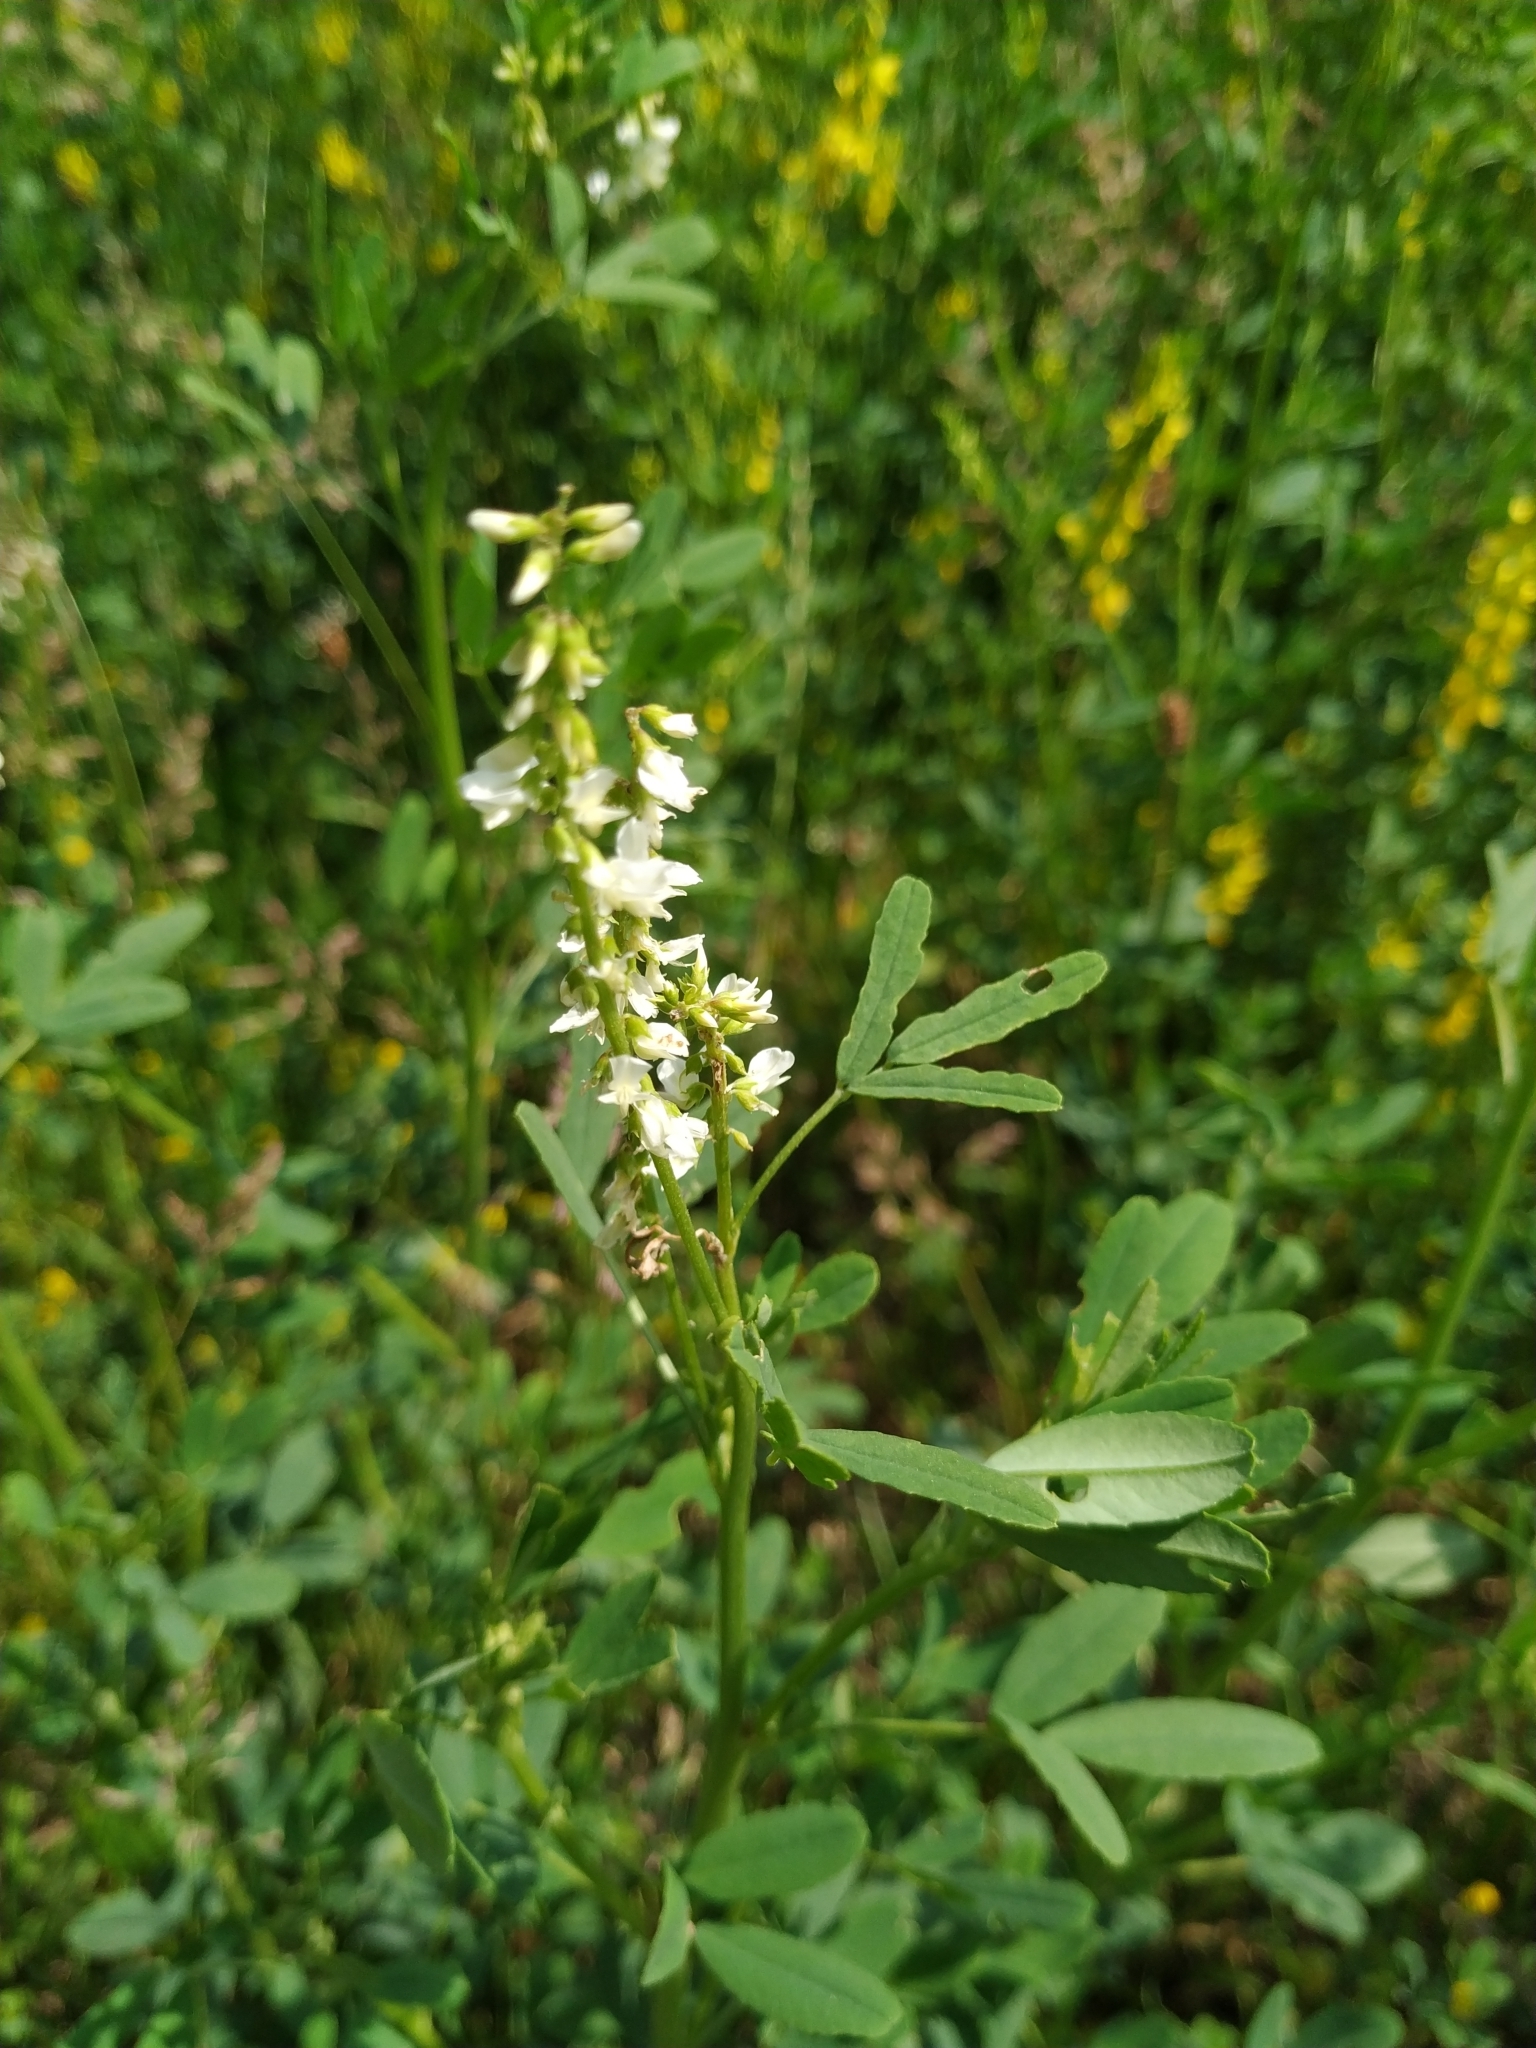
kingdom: Plantae
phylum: Tracheophyta
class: Magnoliopsida
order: Fabales
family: Fabaceae
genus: Melilotus
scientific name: Melilotus albus
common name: White melilot
